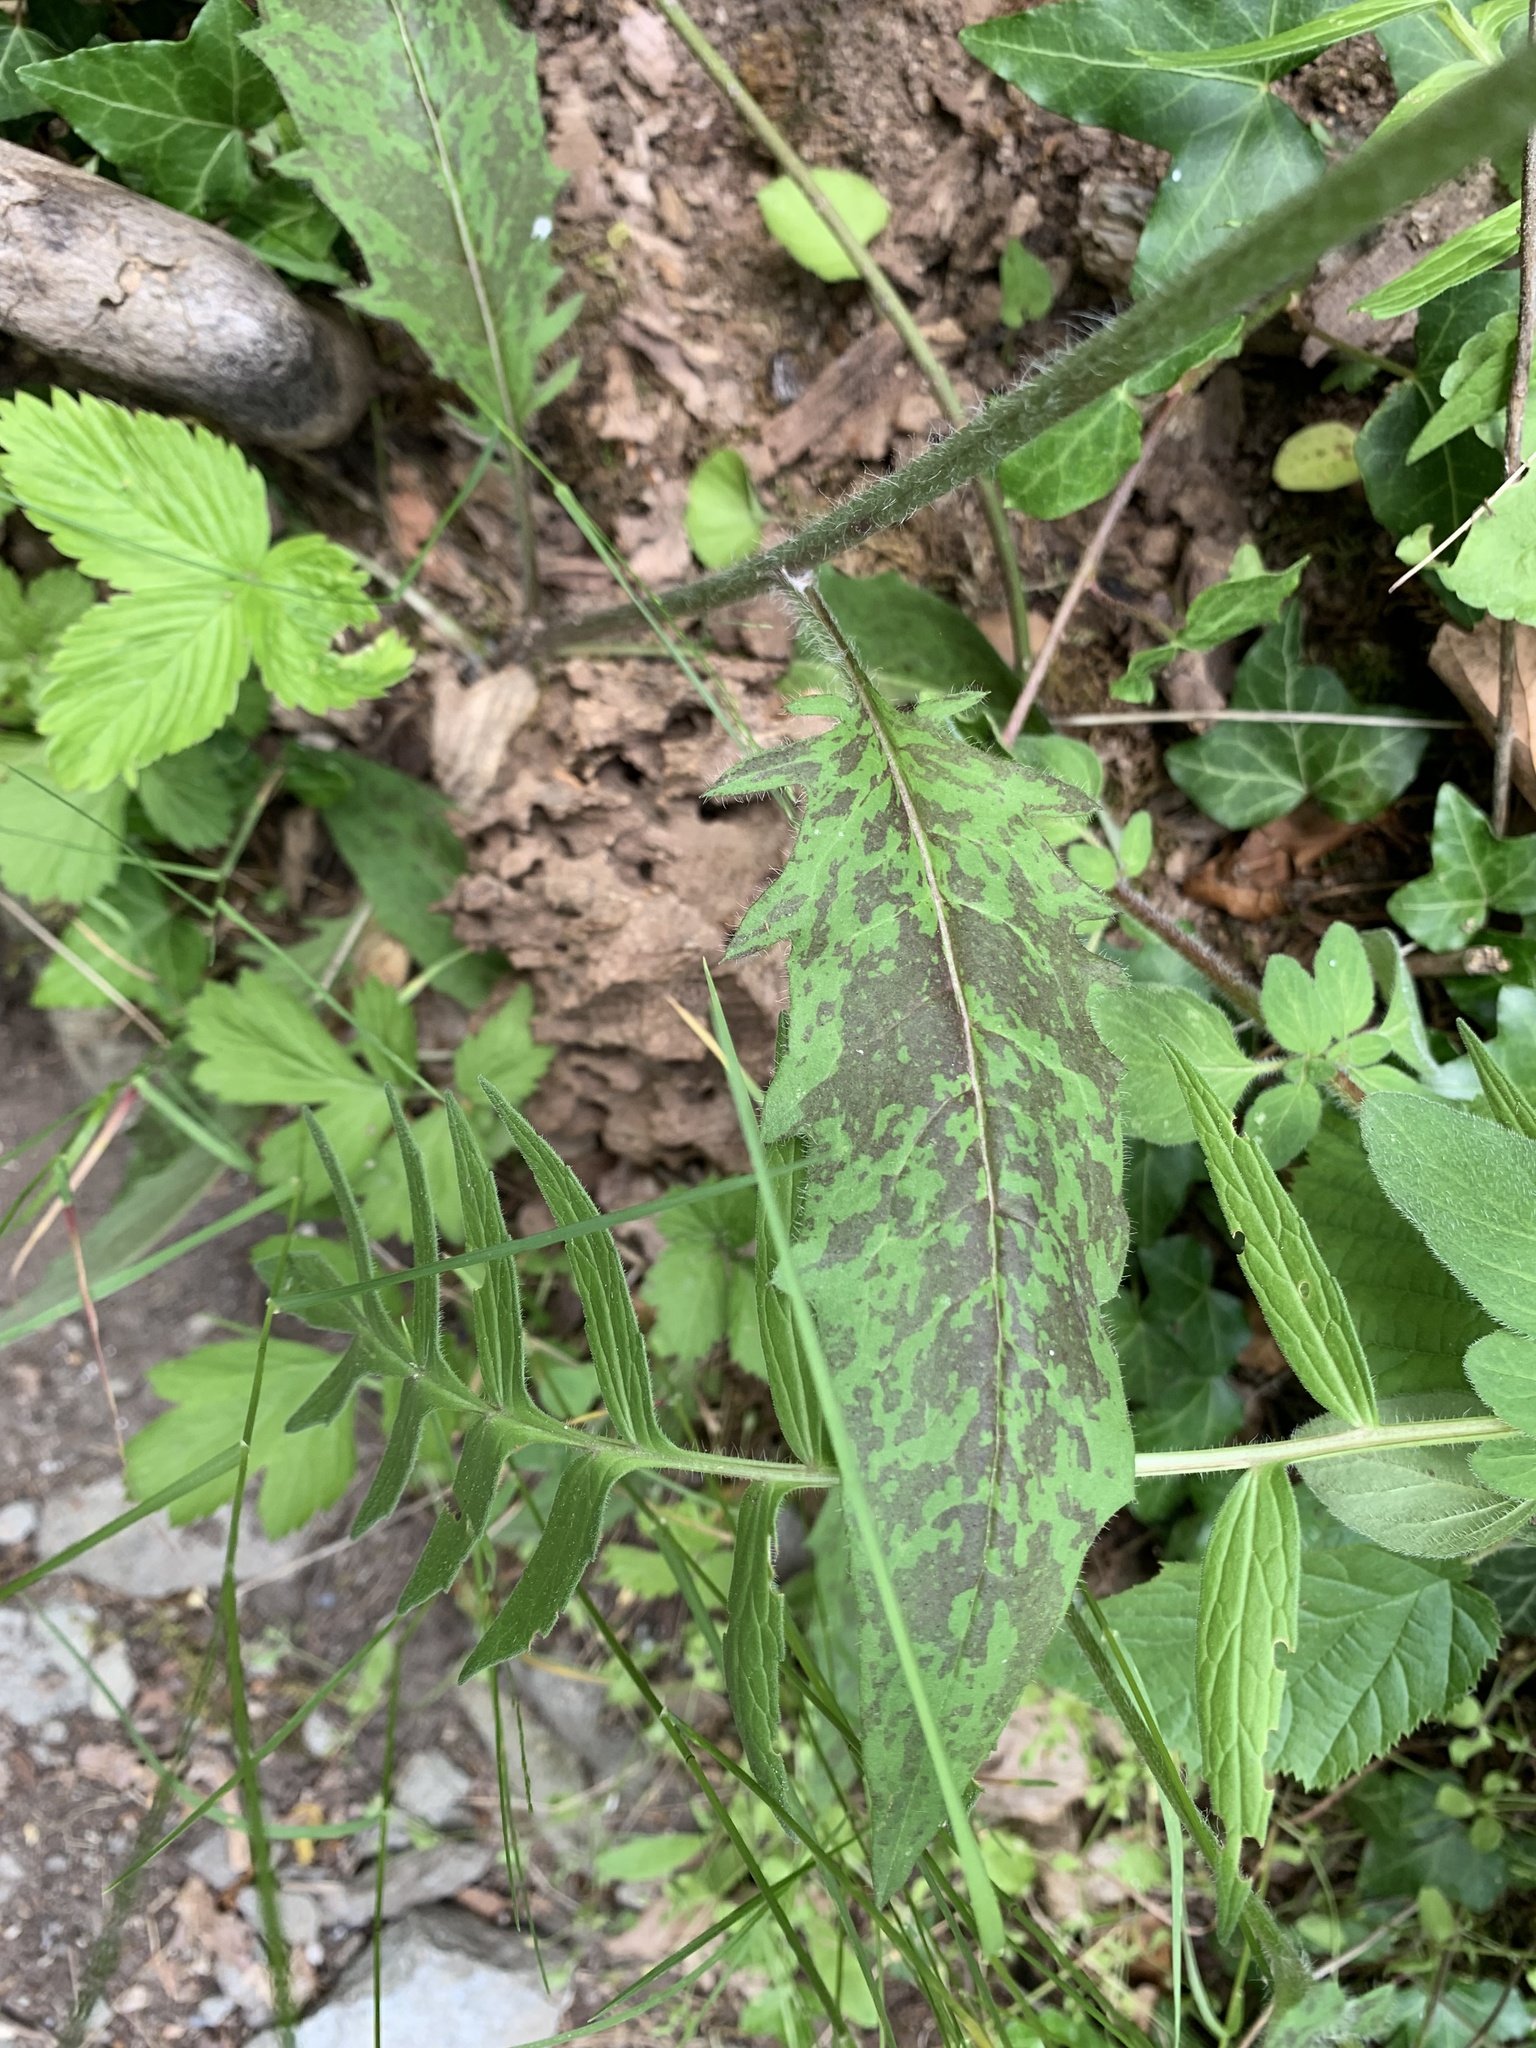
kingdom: Plantae
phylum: Tracheophyta
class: Magnoliopsida
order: Asterales
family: Asteraceae
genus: Hieracium
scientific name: Hieracium maculatum
